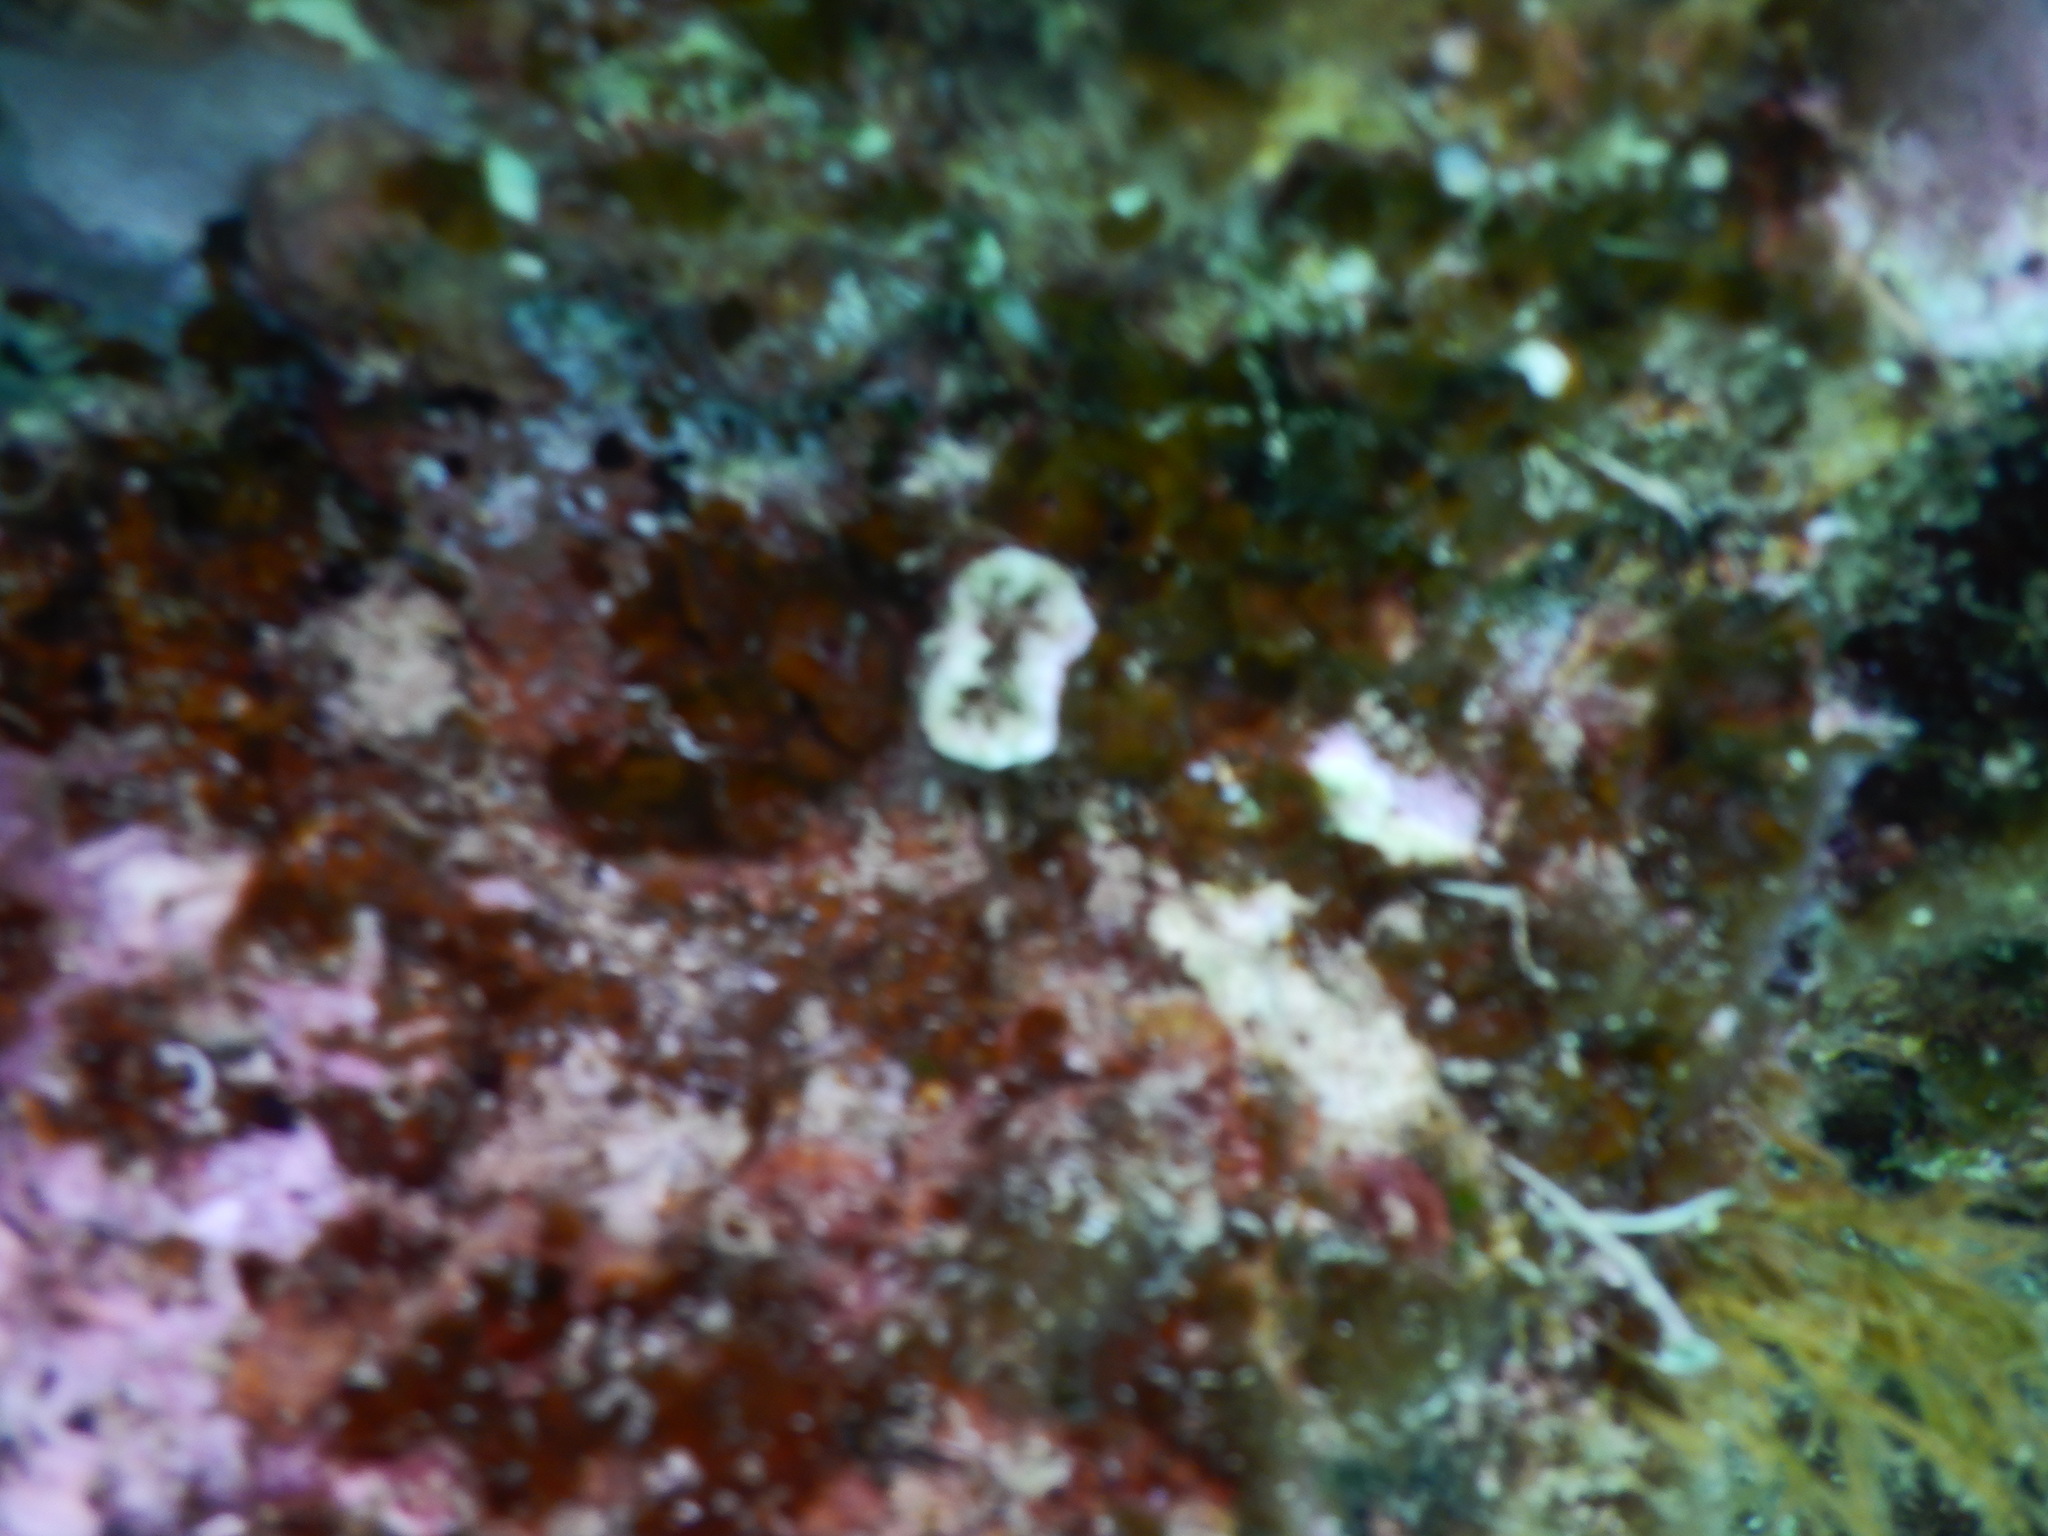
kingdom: Animalia
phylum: Cnidaria
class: Anthozoa
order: Scleractinia
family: Dendrophylliidae
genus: Balanophyllia
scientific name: Balanophyllia europaea
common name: Scarlet coral
